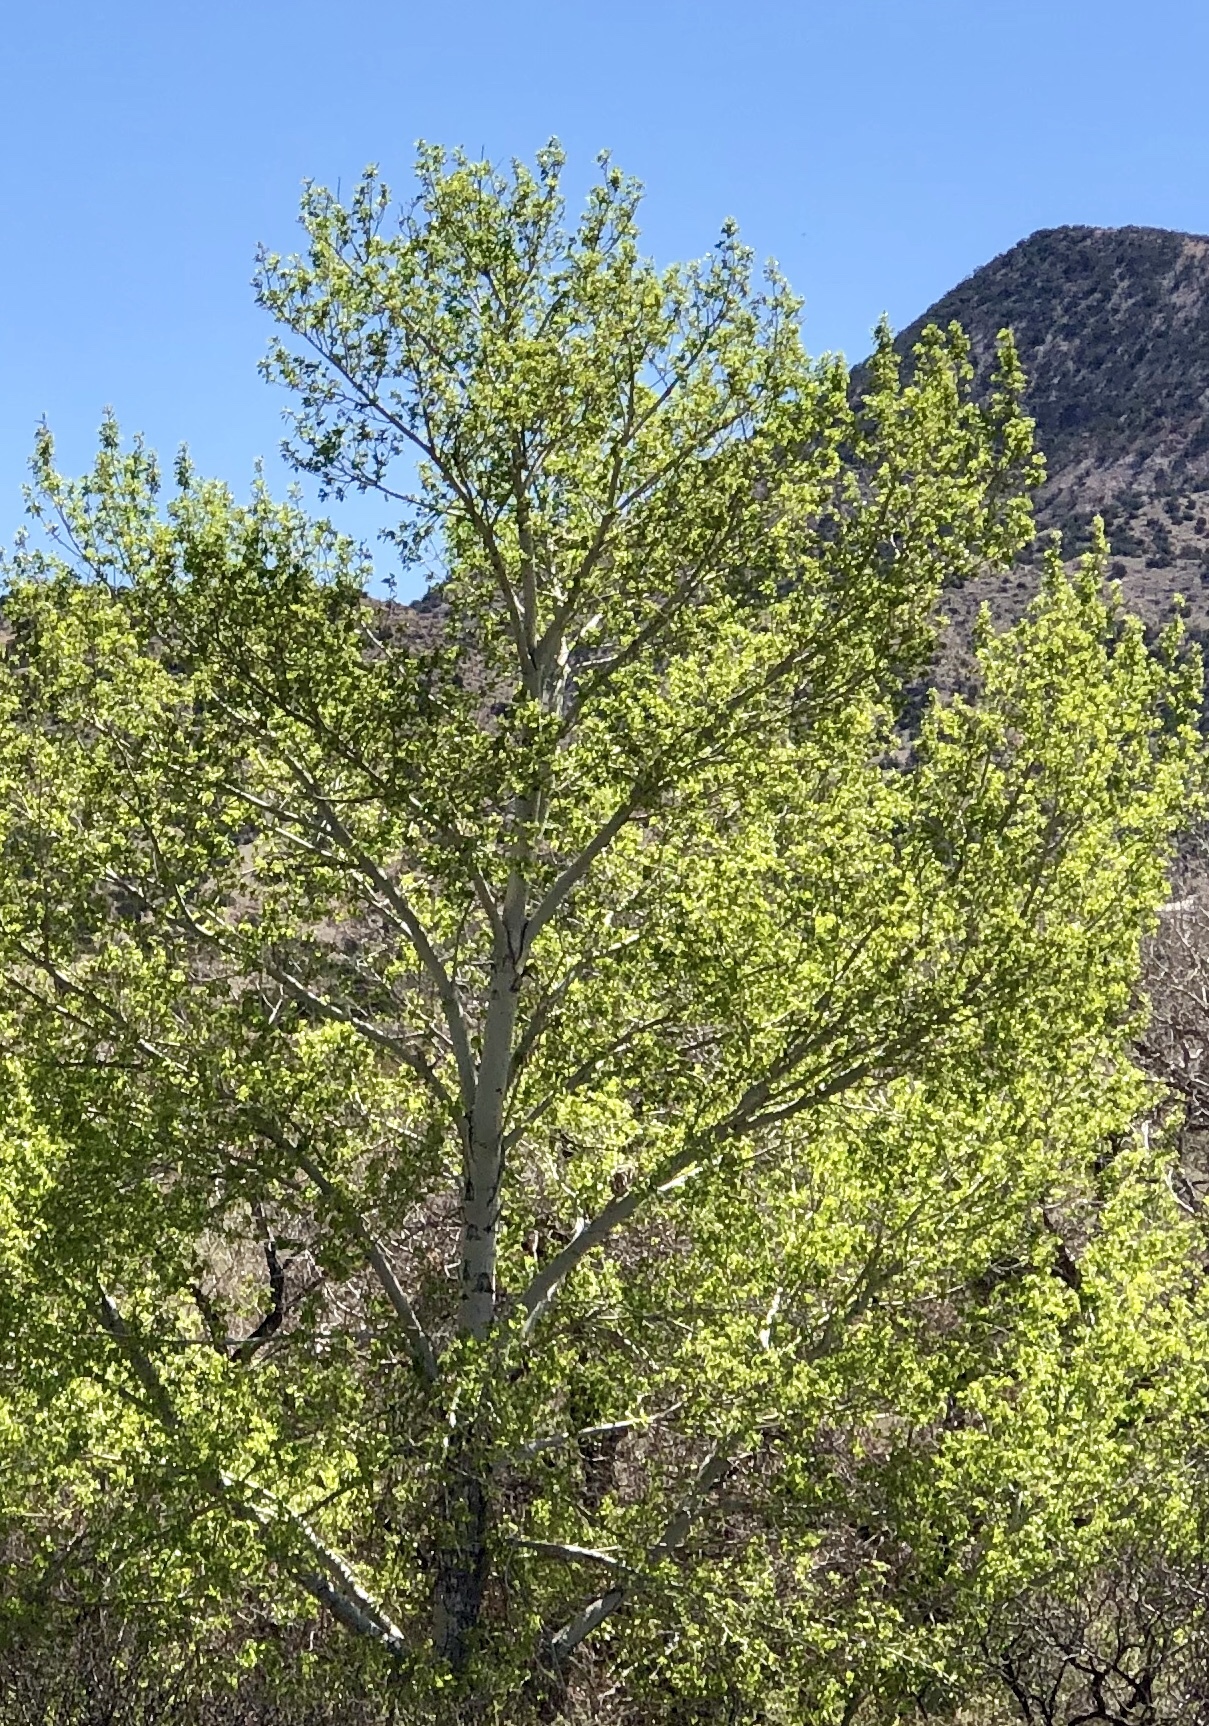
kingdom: Plantae
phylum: Tracheophyta
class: Magnoliopsida
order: Malpighiales
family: Salicaceae
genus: Populus
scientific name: Populus fremontii
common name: Fremont's cottonwood
